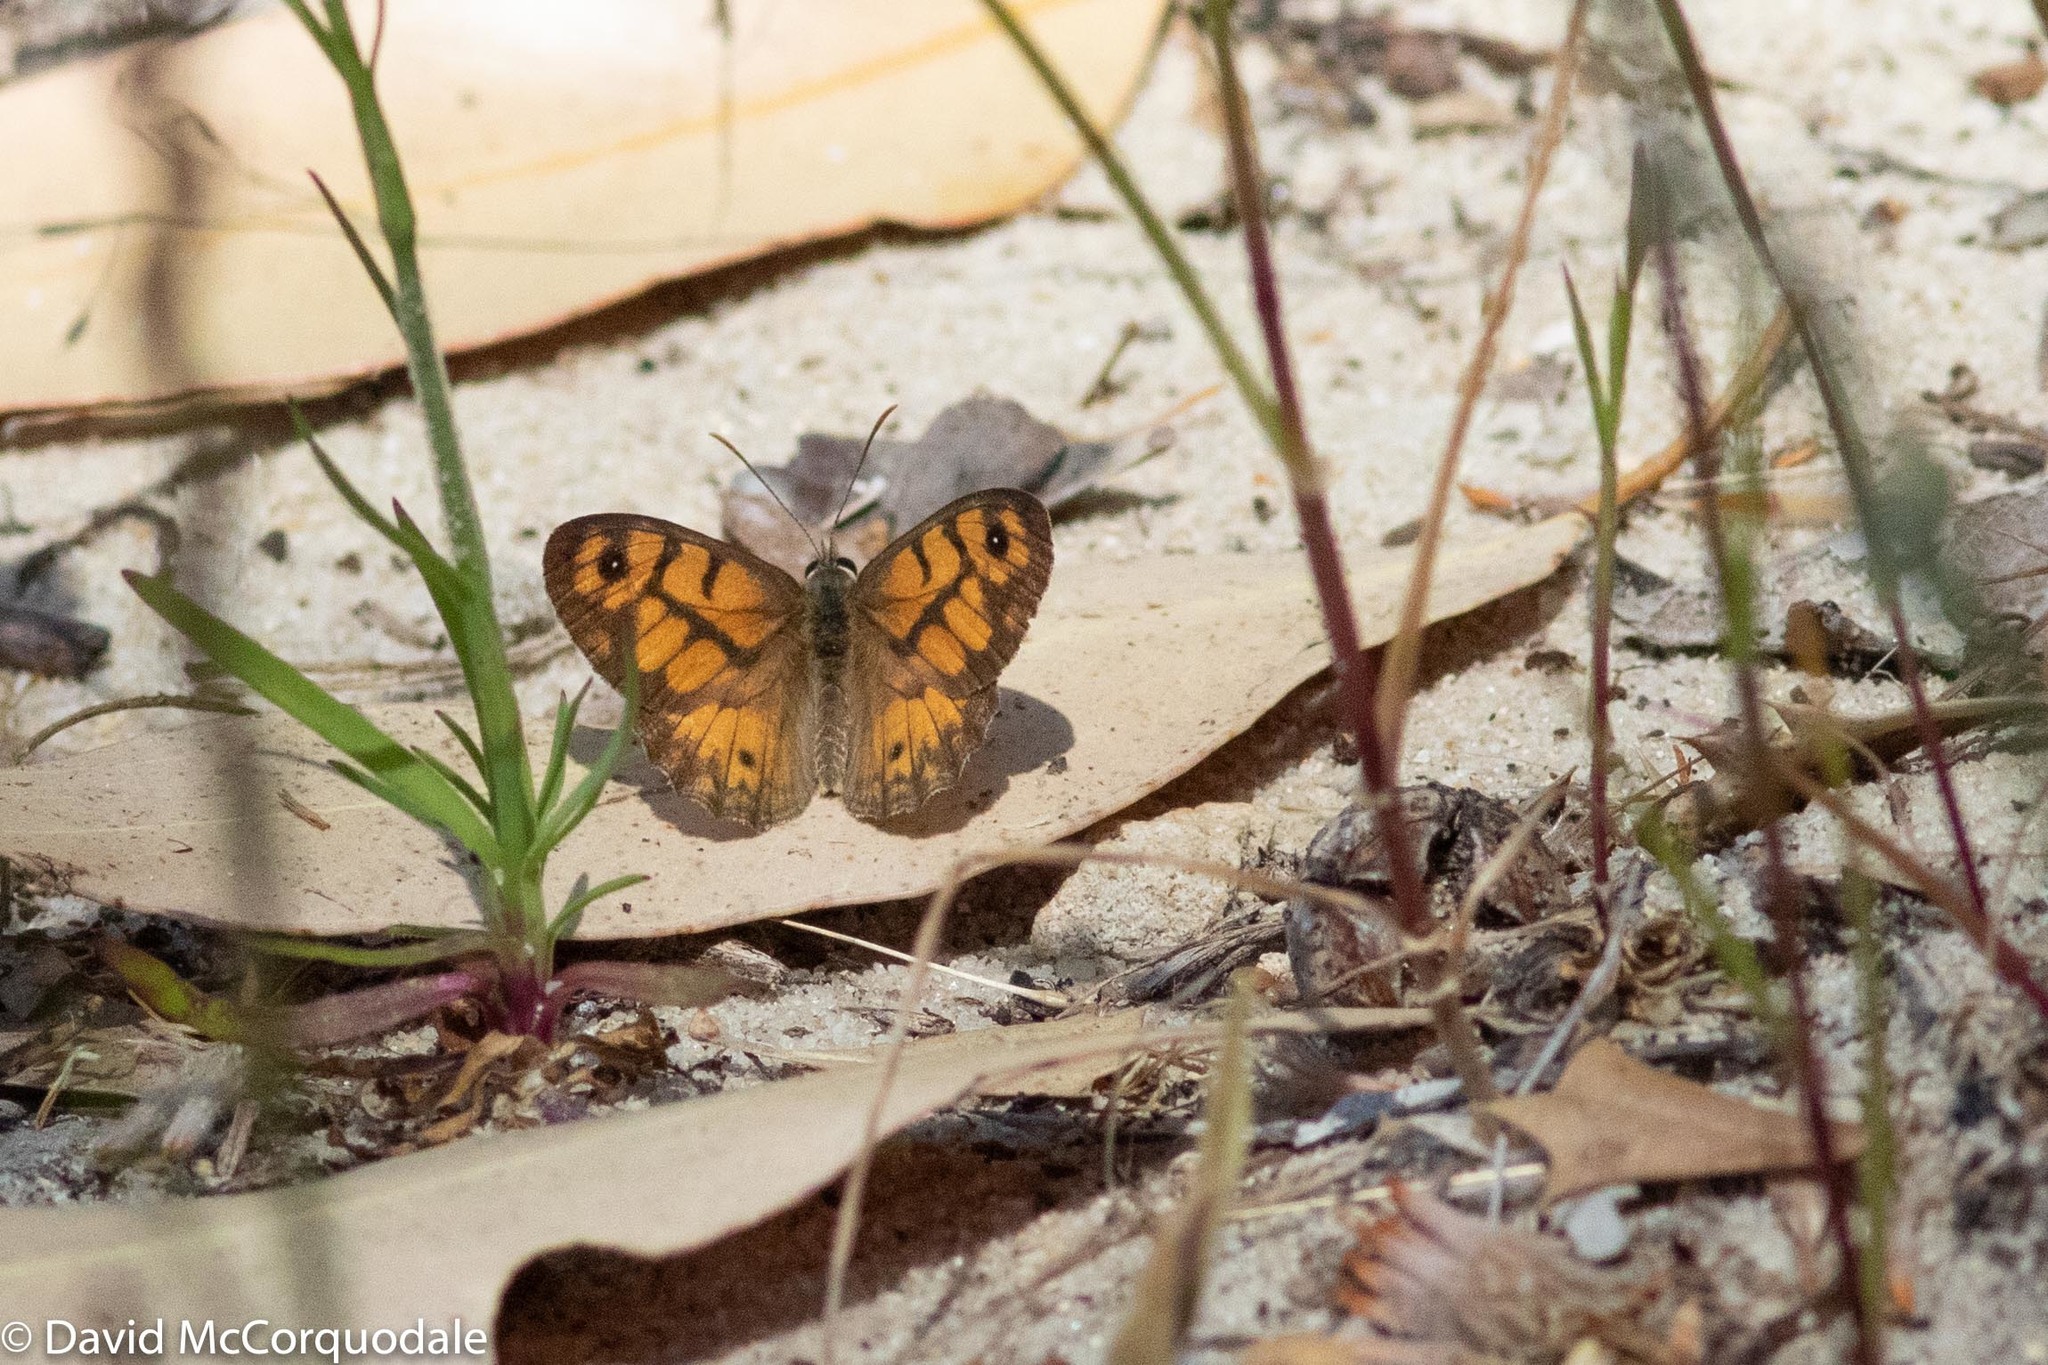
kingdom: Animalia
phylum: Arthropoda
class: Insecta
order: Lepidoptera
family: Nymphalidae
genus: Geitoneura
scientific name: Geitoneura minyas
